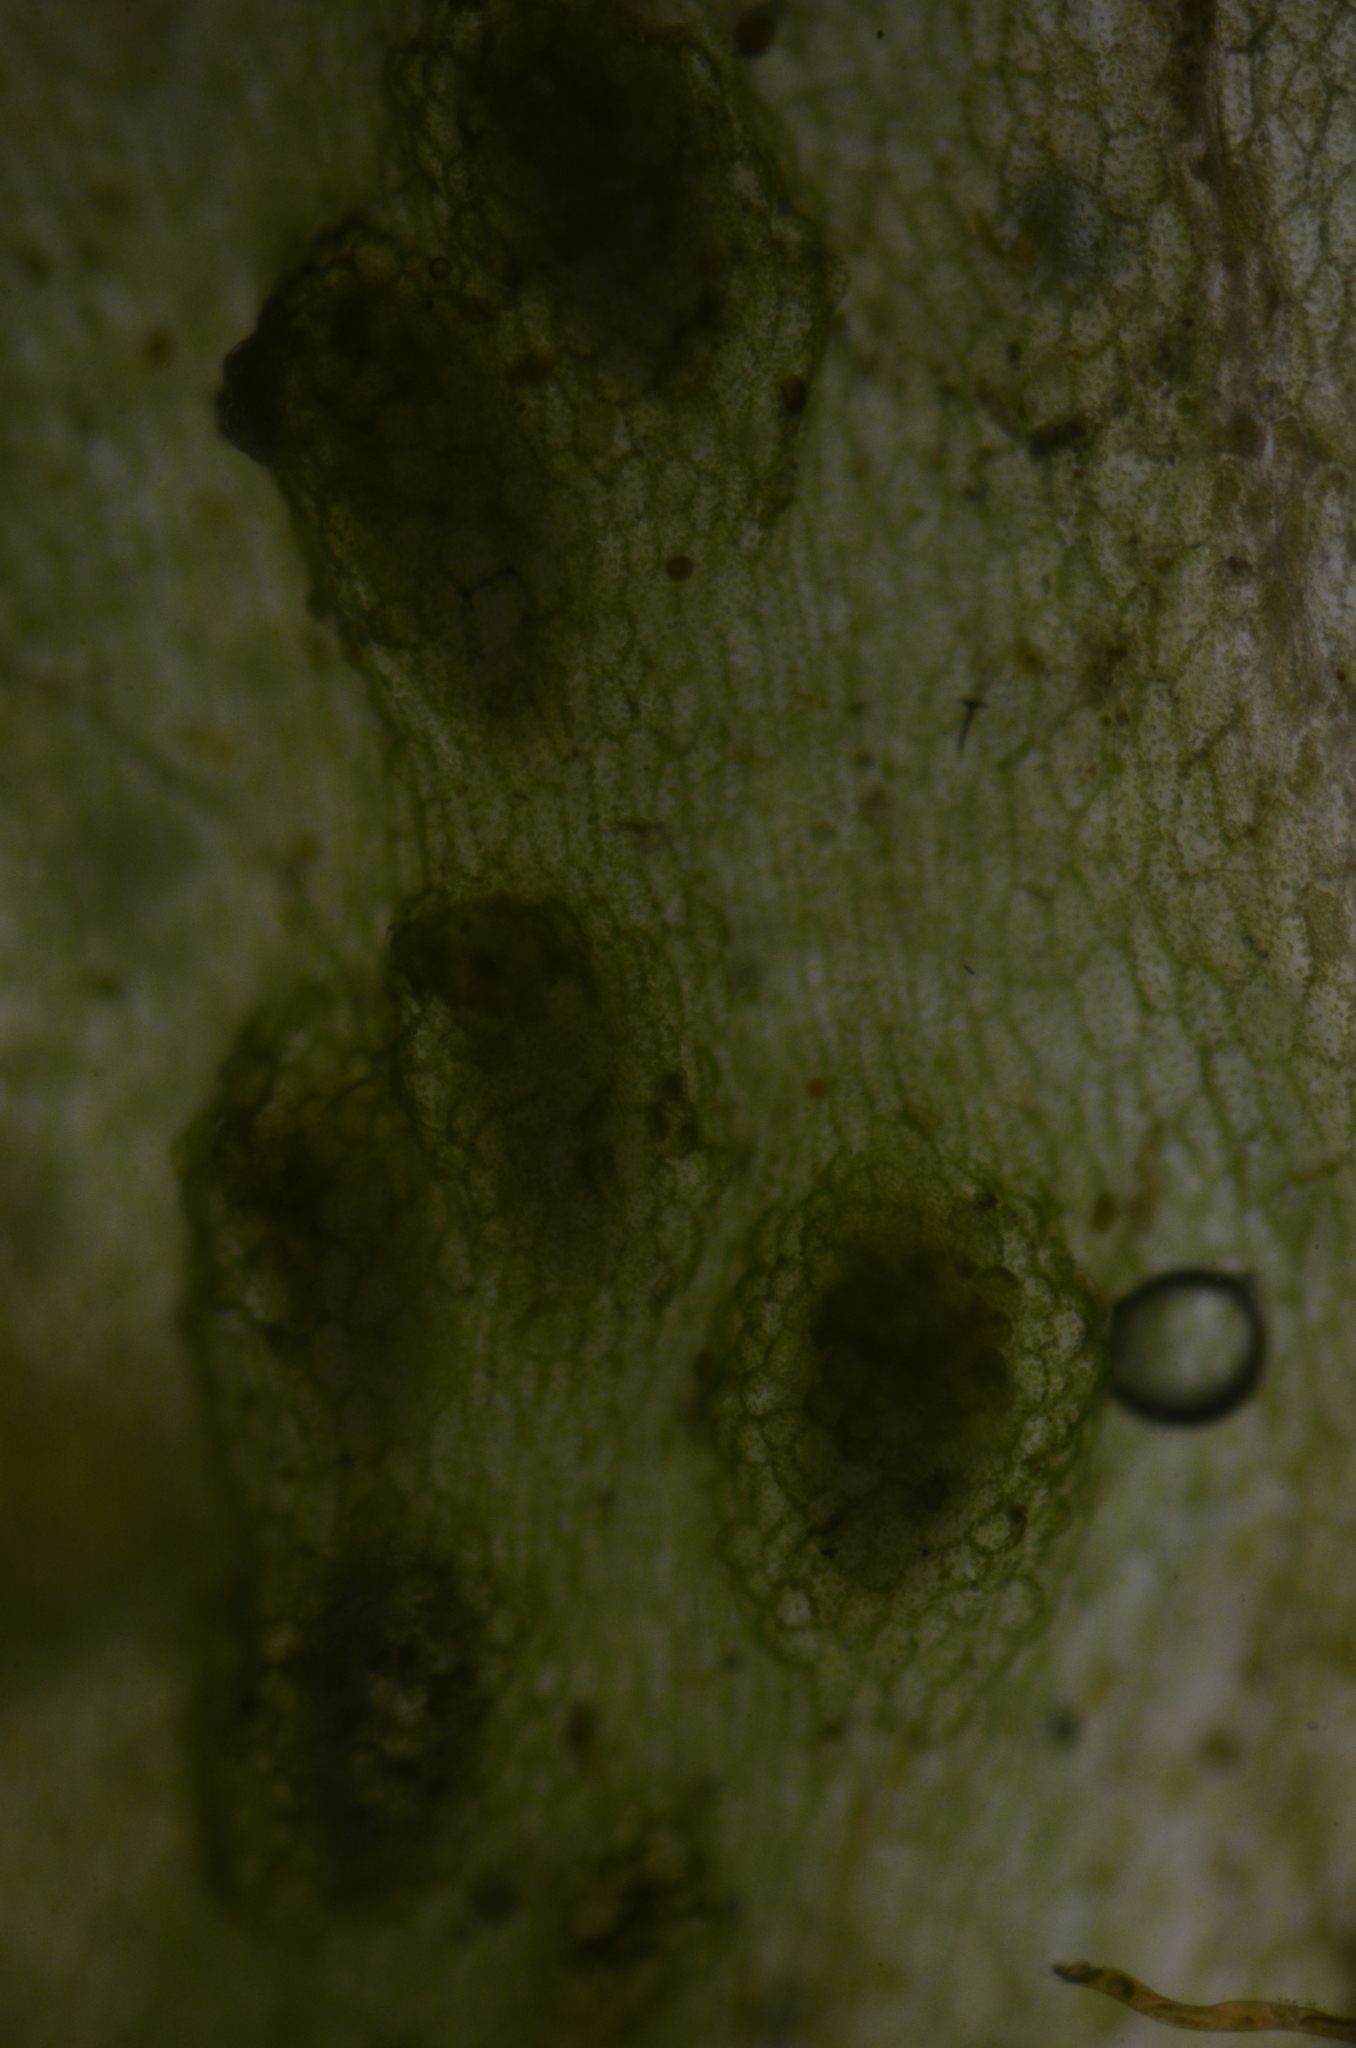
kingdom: Plantae
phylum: Marchantiophyta
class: Jungermanniopsida
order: Pelliales
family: Pelliaceae
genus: Apopellia
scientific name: Apopellia alpicola
